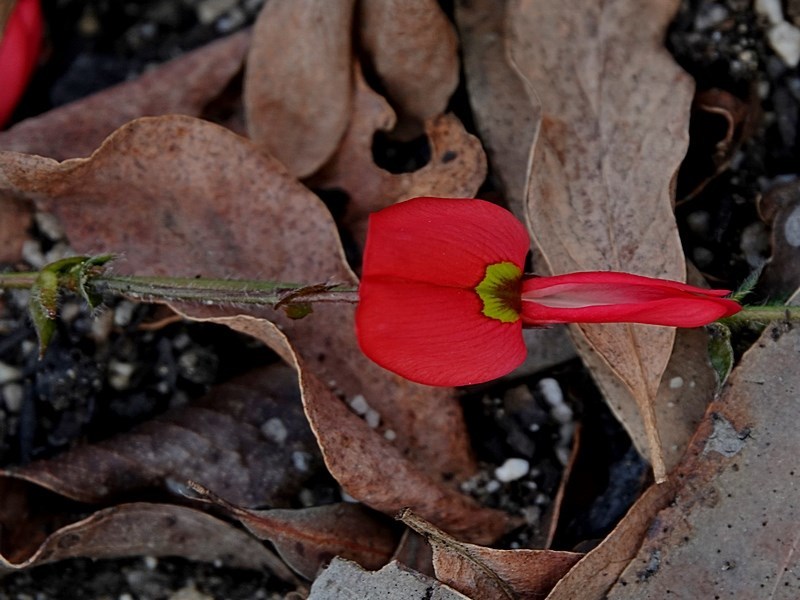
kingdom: Plantae
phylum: Tracheophyta
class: Magnoliopsida
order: Fabales
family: Fabaceae
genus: Kennedia
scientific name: Kennedia prostrata
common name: Running-postman
